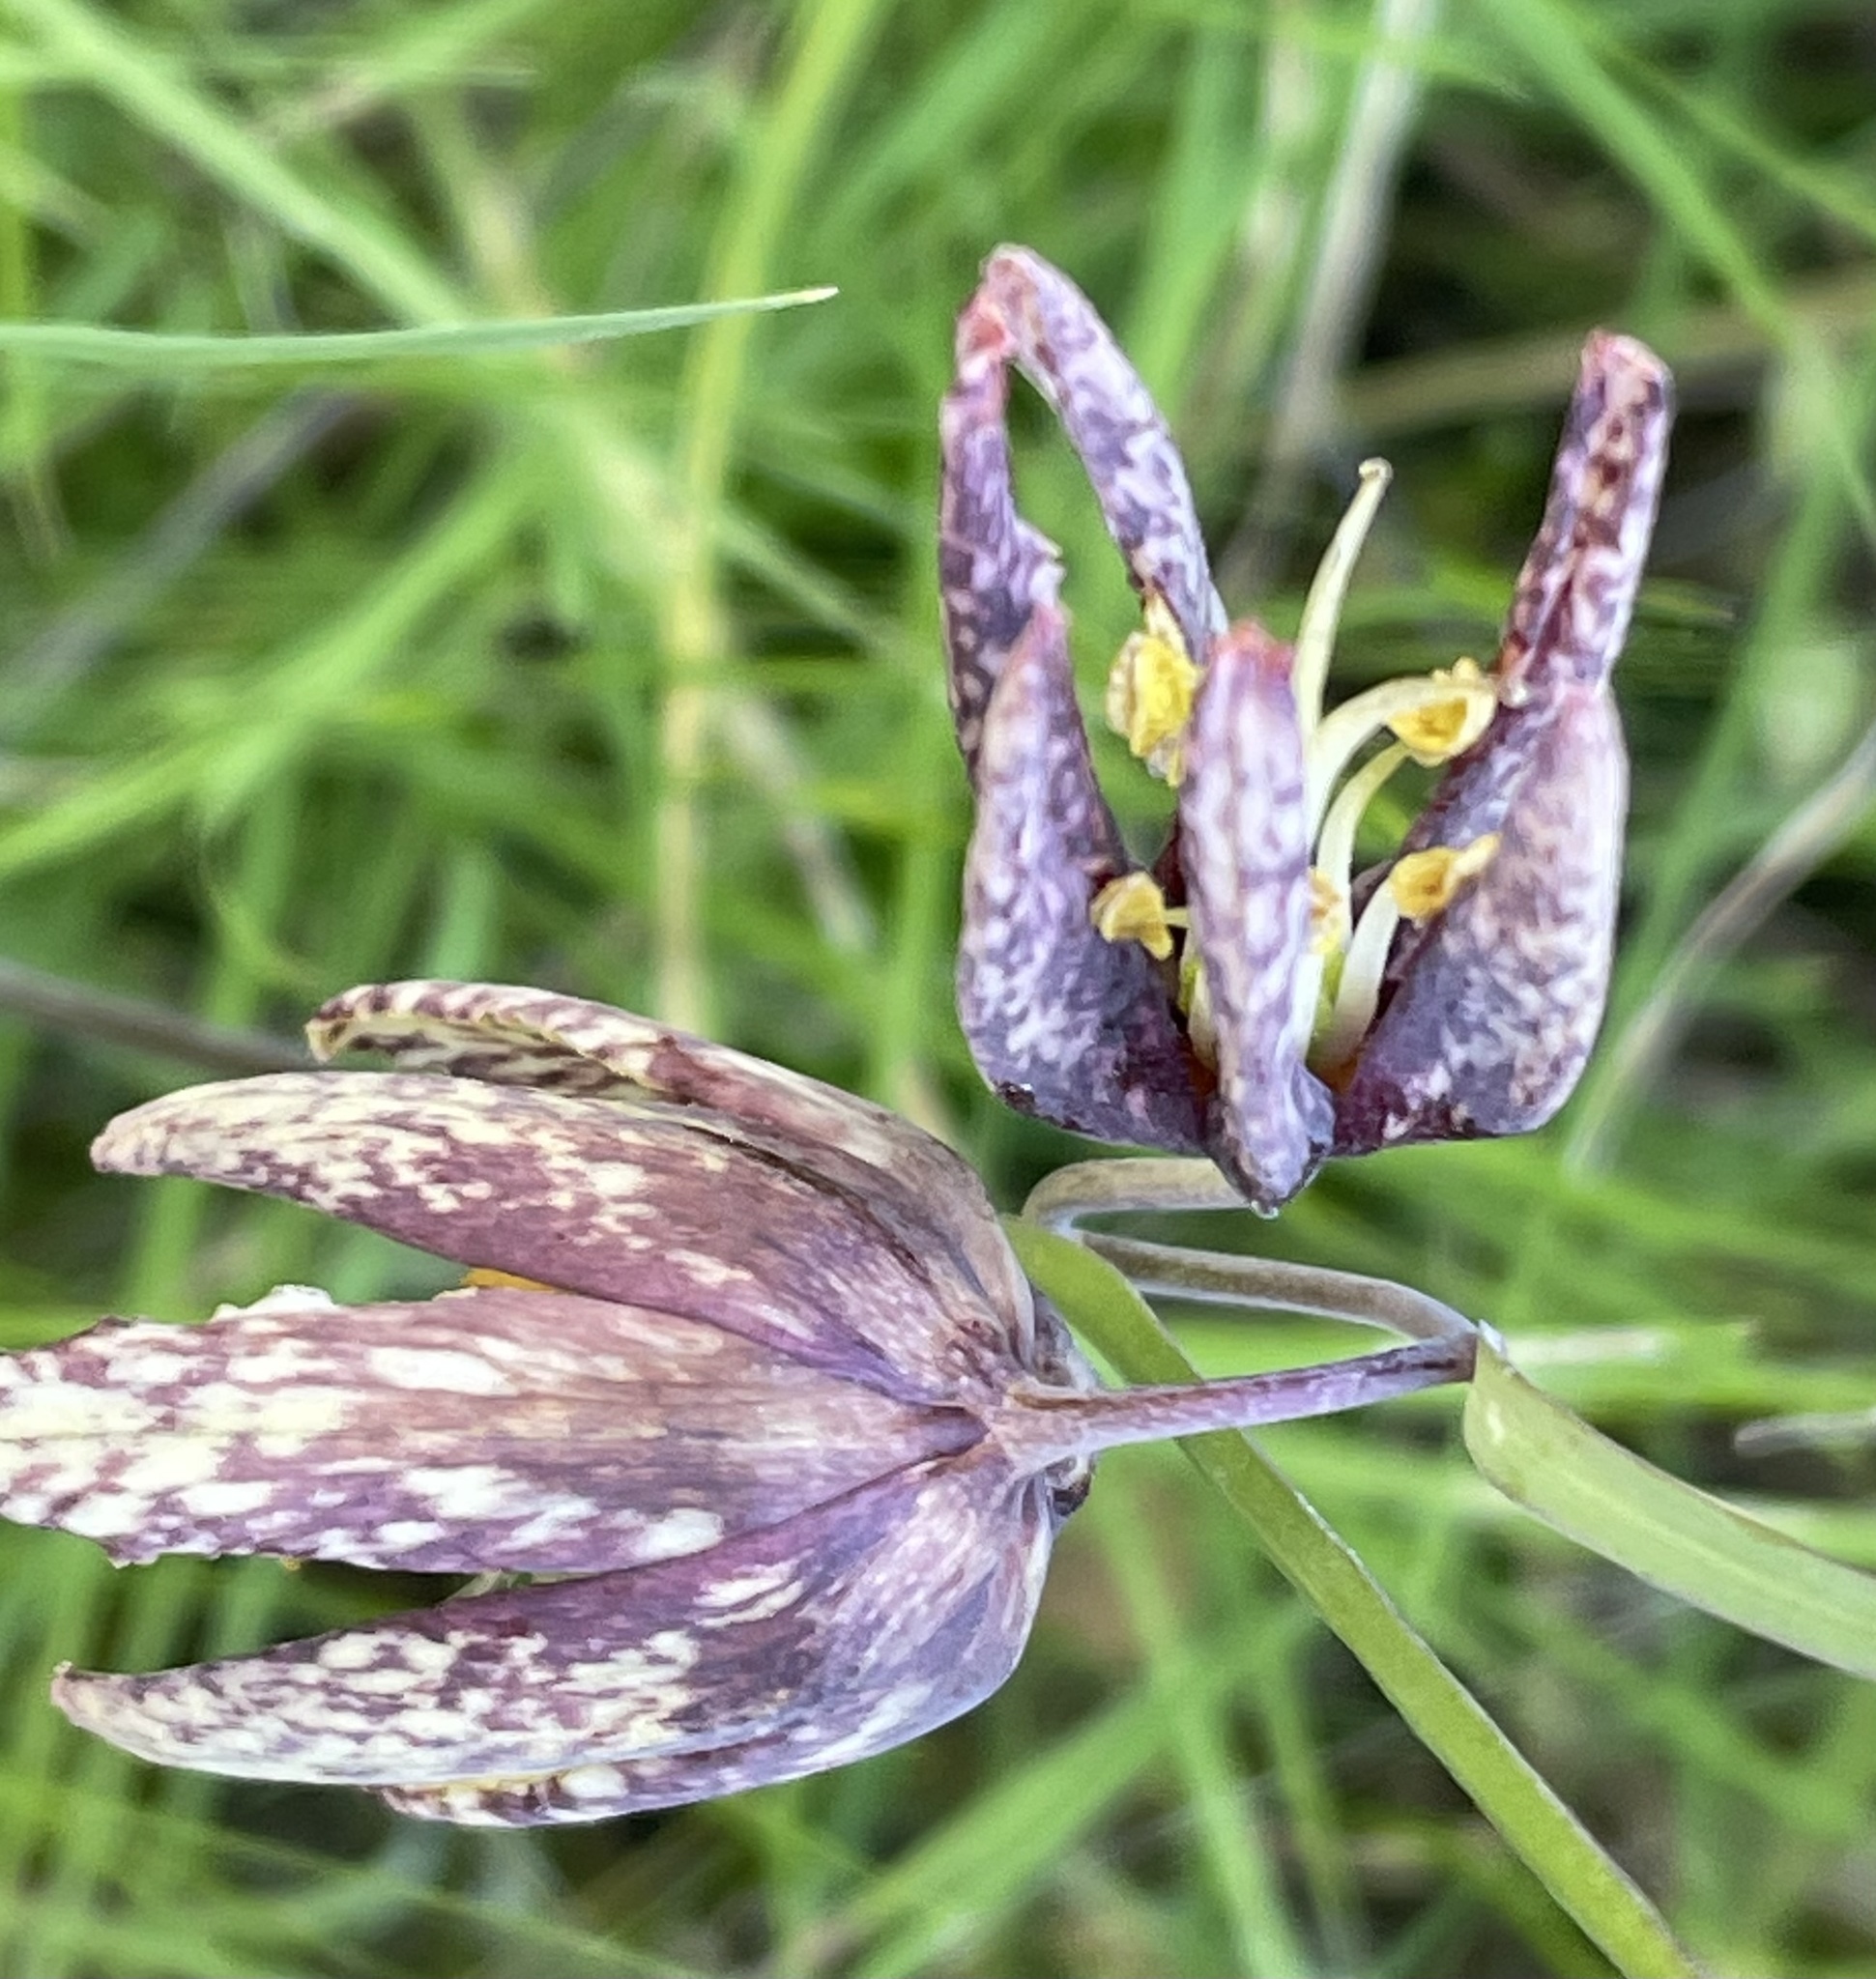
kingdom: Plantae
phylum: Tracheophyta
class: Liliopsida
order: Liliales
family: Liliaceae
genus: Fritillaria
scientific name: Fritillaria affinis
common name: Ojai fritillary
